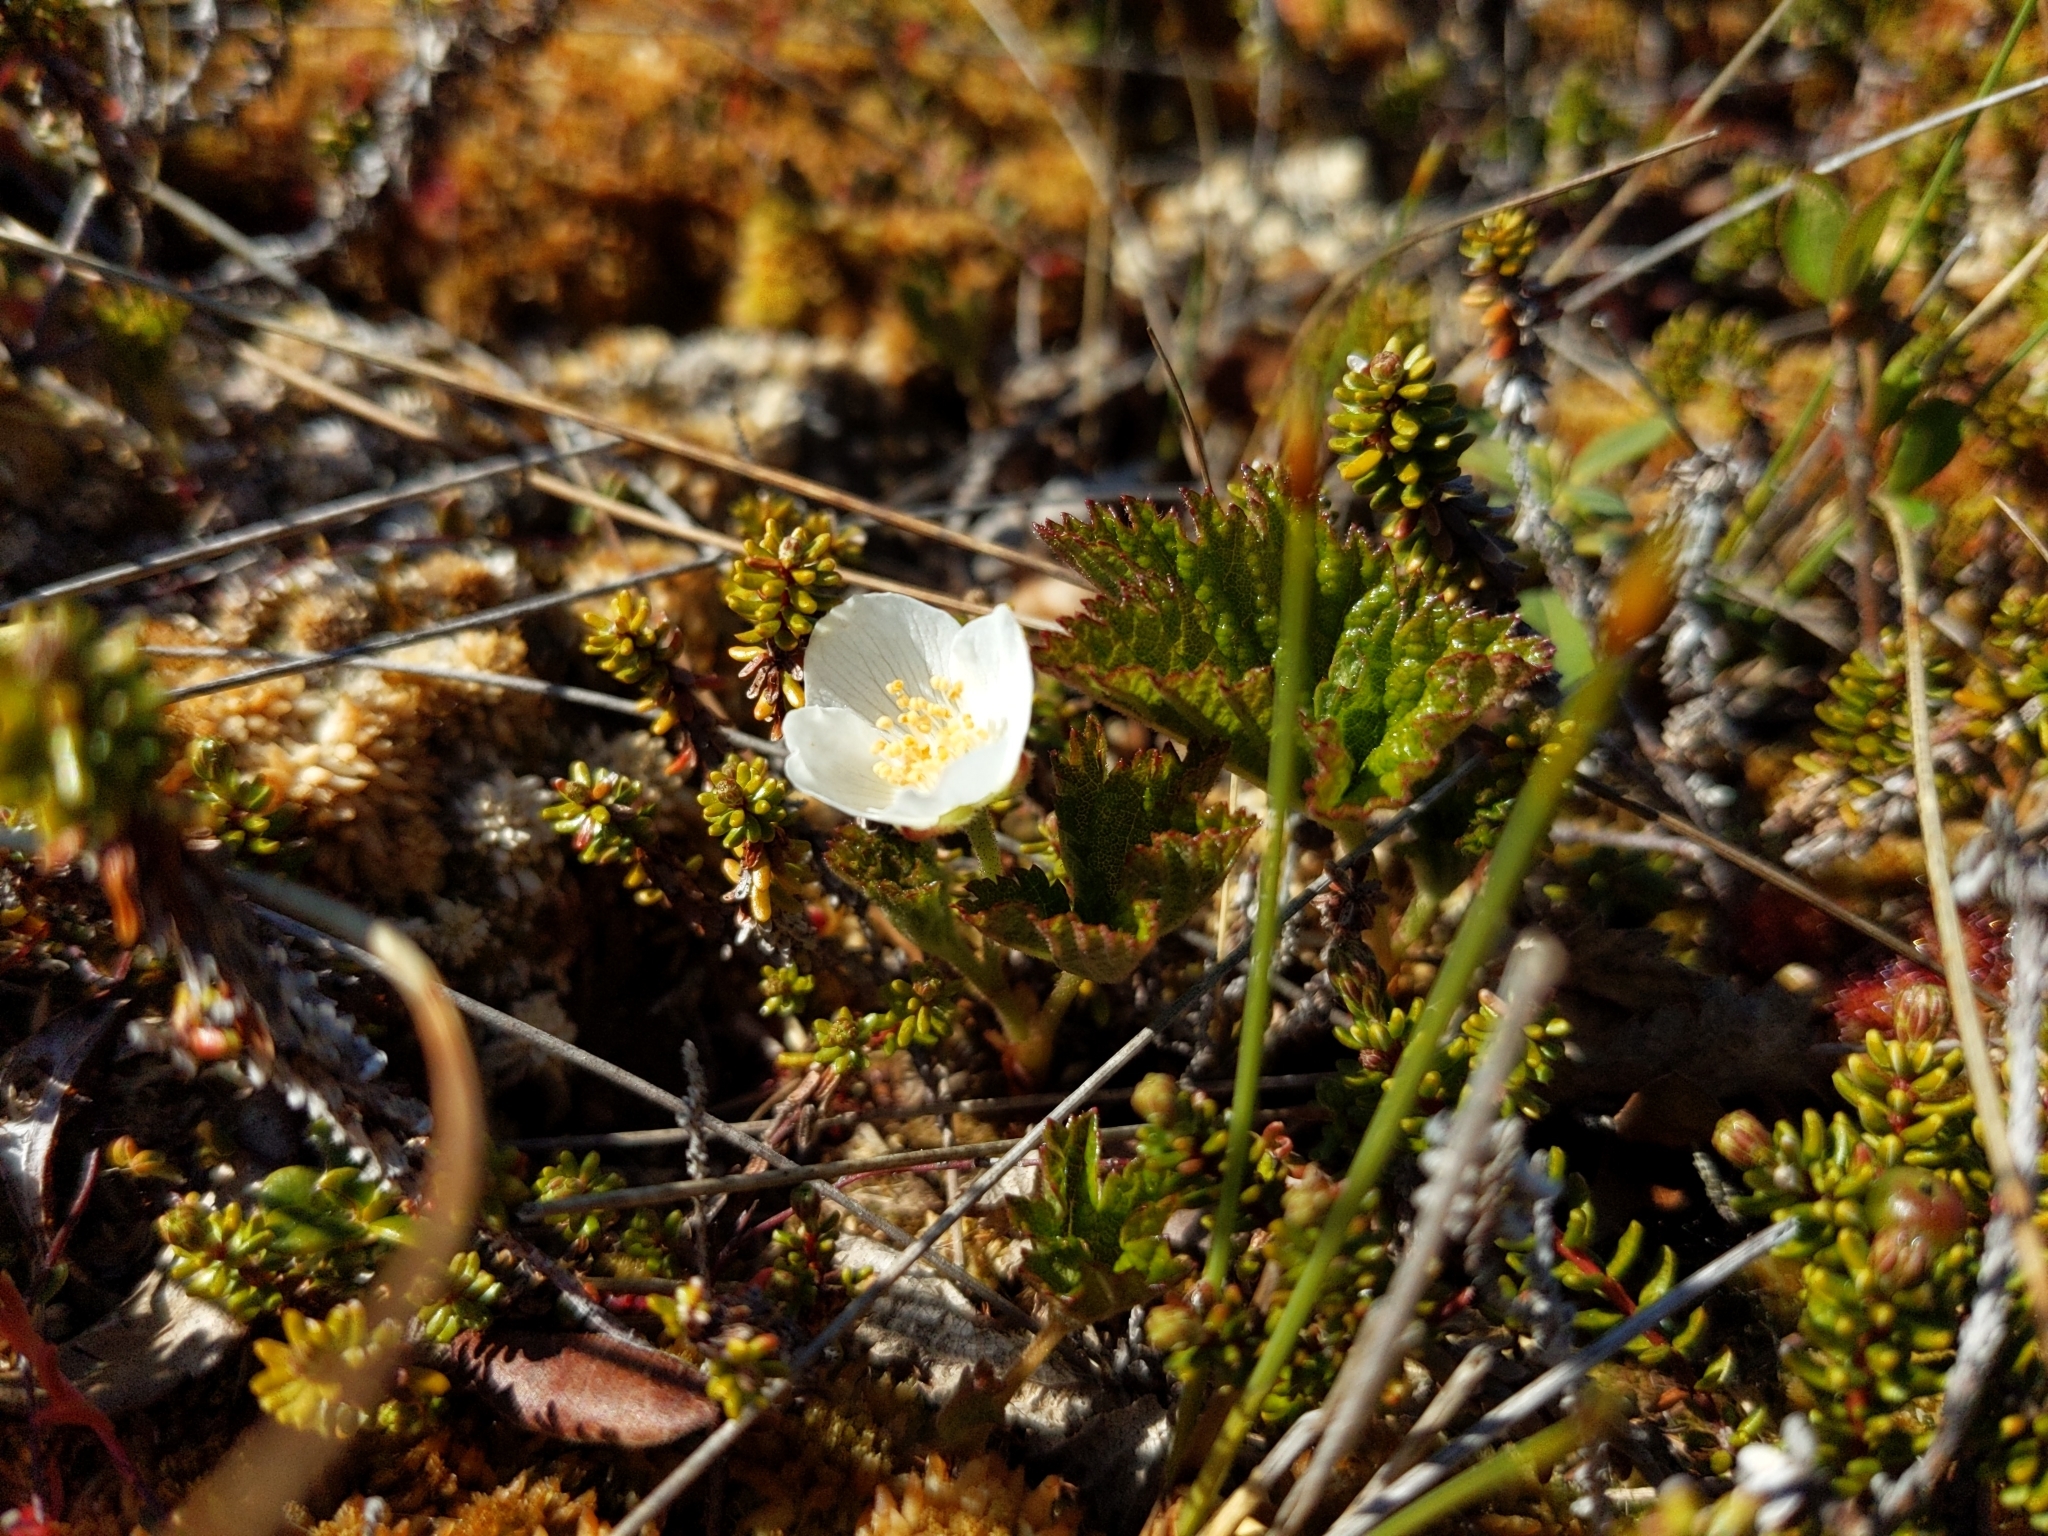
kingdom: Plantae
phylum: Tracheophyta
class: Magnoliopsida
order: Rosales
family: Rosaceae
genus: Rubus
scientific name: Rubus chamaemorus
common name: Cloudberry
